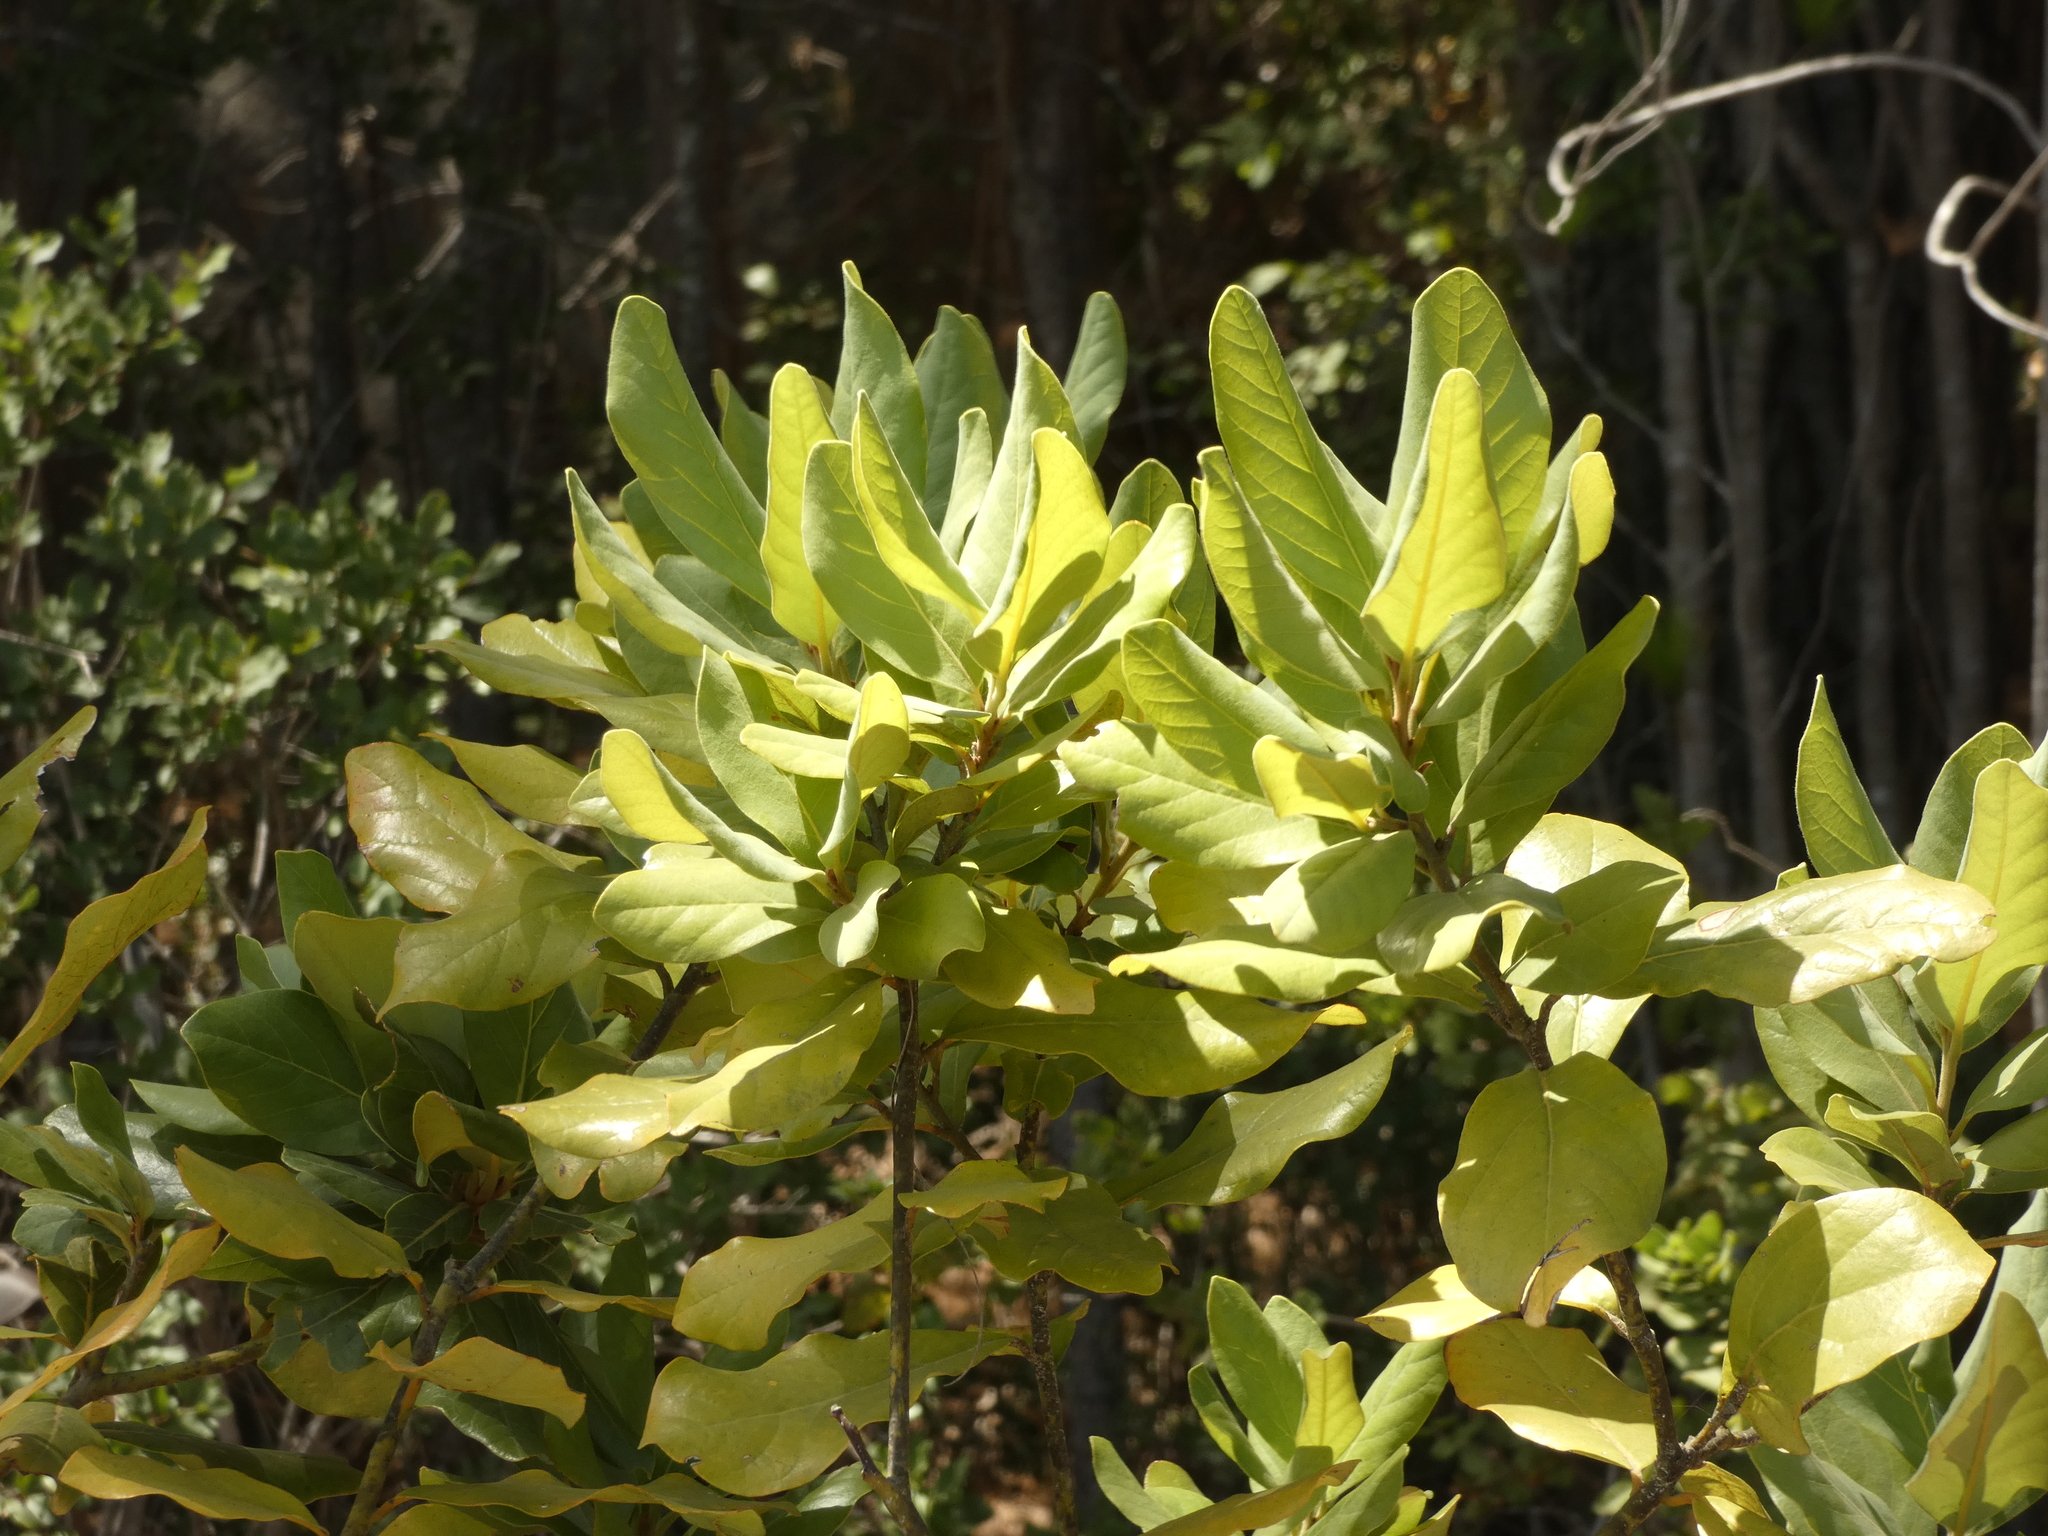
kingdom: Plantae
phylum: Tracheophyta
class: Magnoliopsida
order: Laurales
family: Lauraceae
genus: Persea
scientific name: Persea lingue
